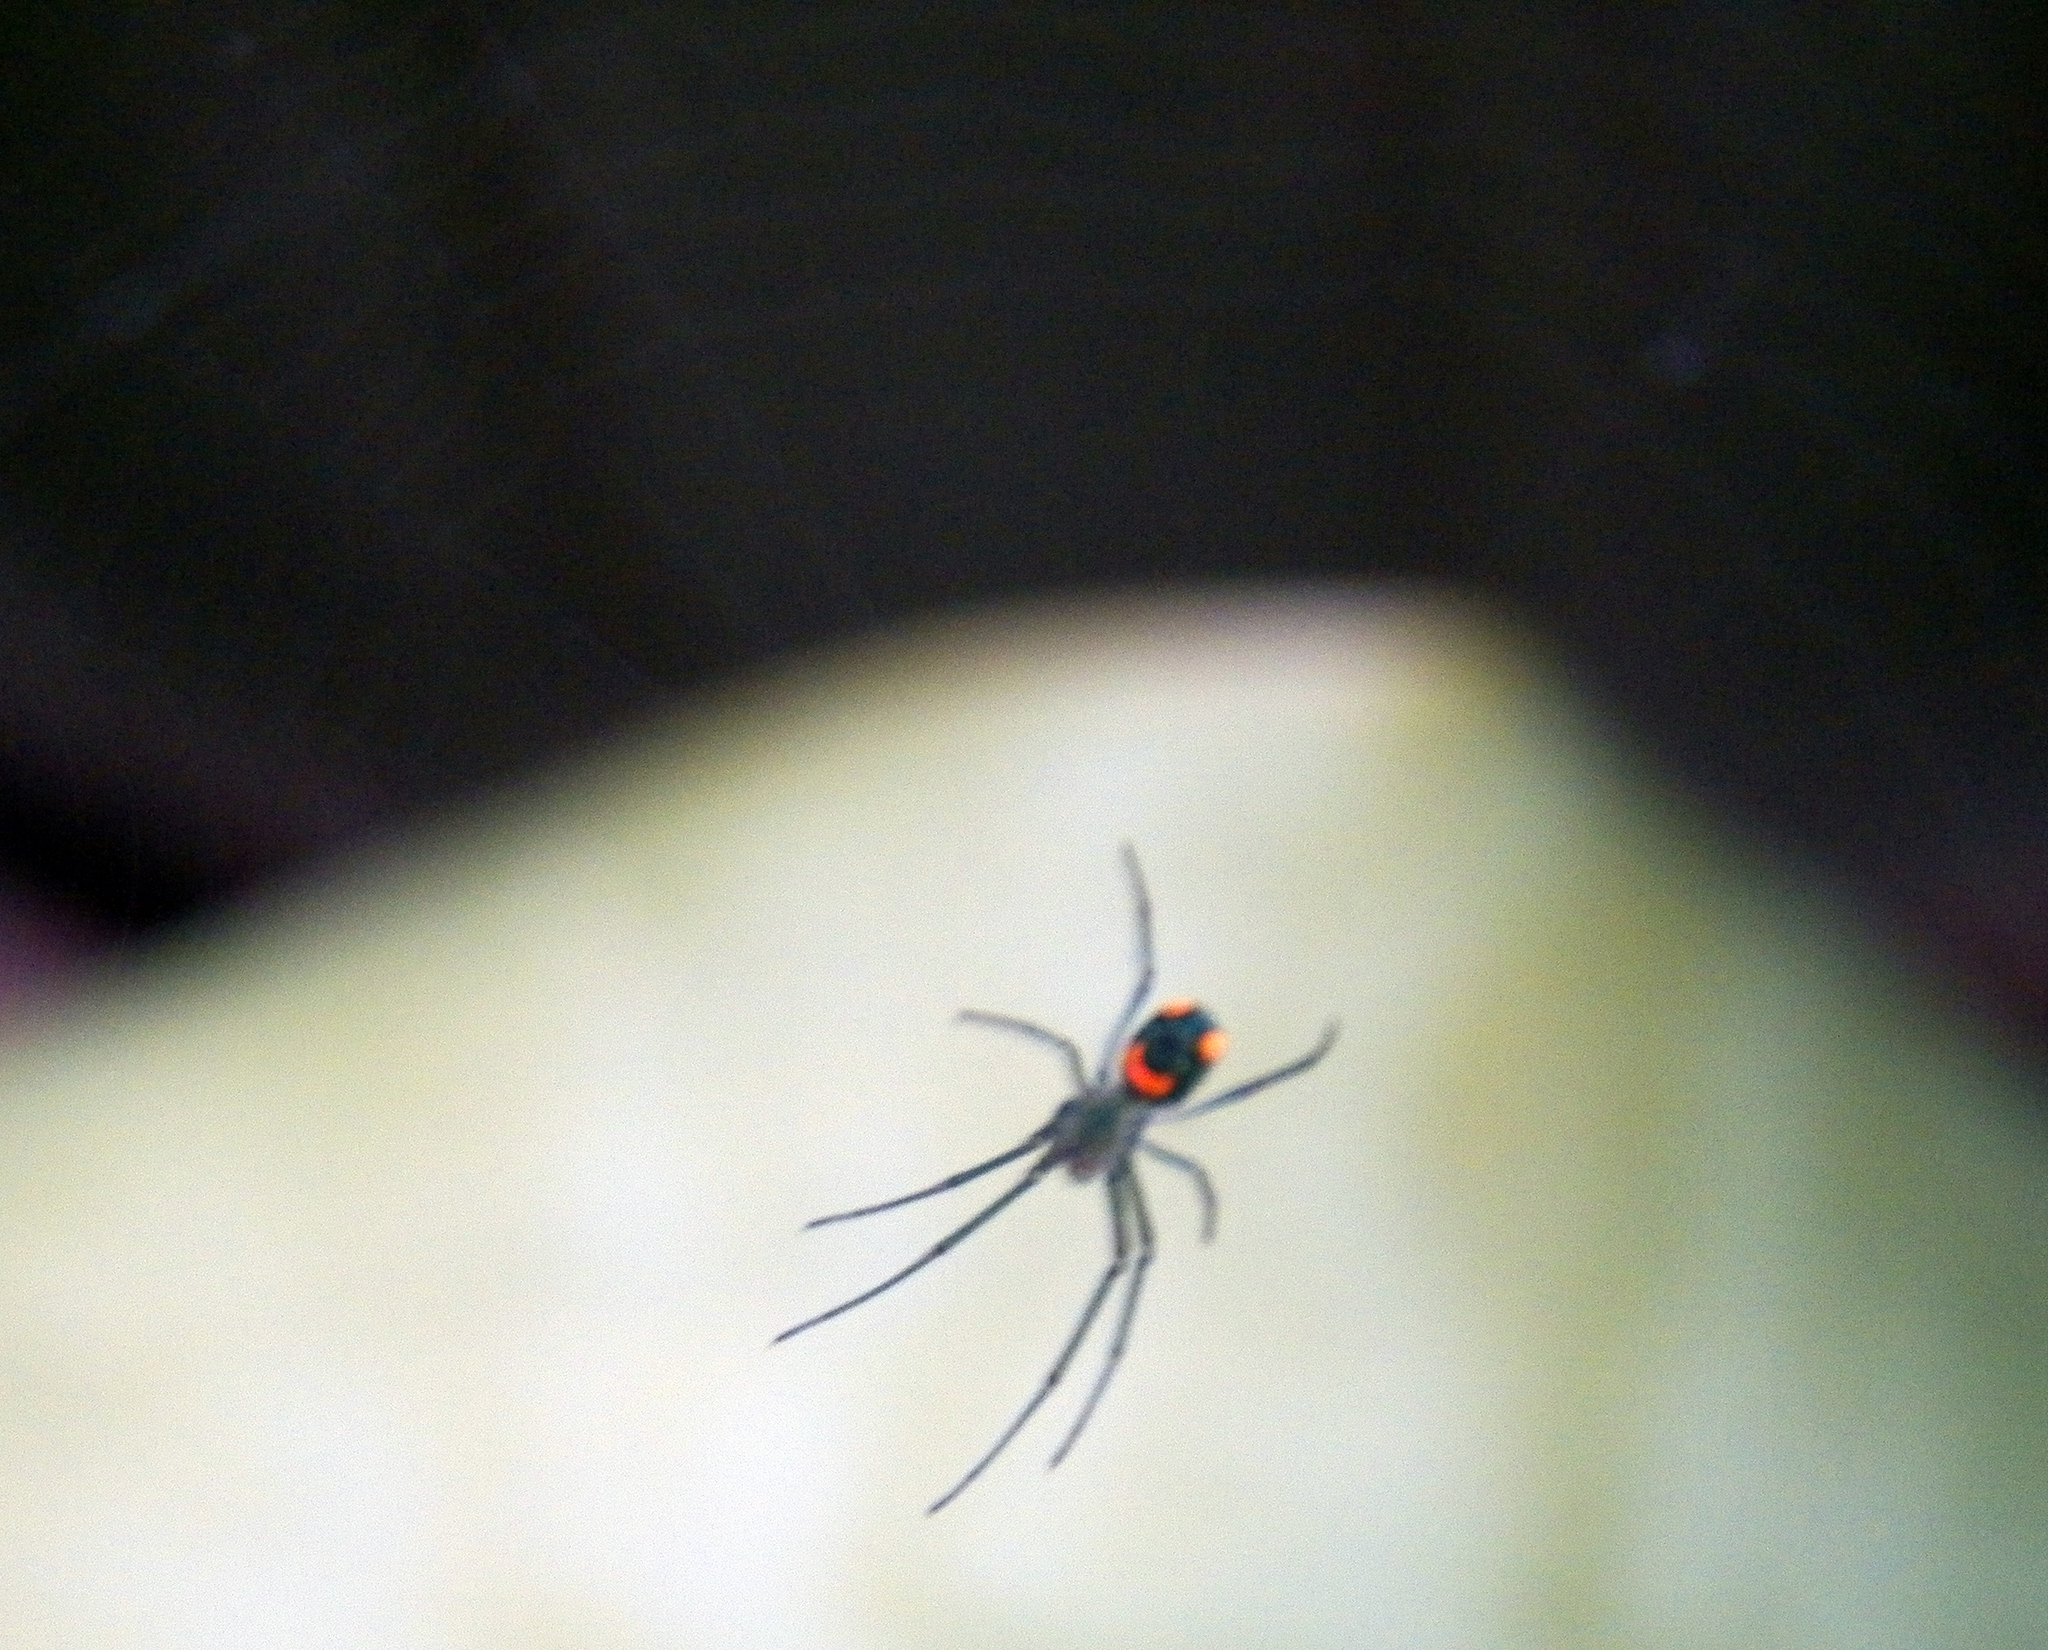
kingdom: Animalia
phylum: Arthropoda
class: Arachnida
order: Araneae
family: Tetragnathidae
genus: Leucauge
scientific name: Leucauge argyrobapta
